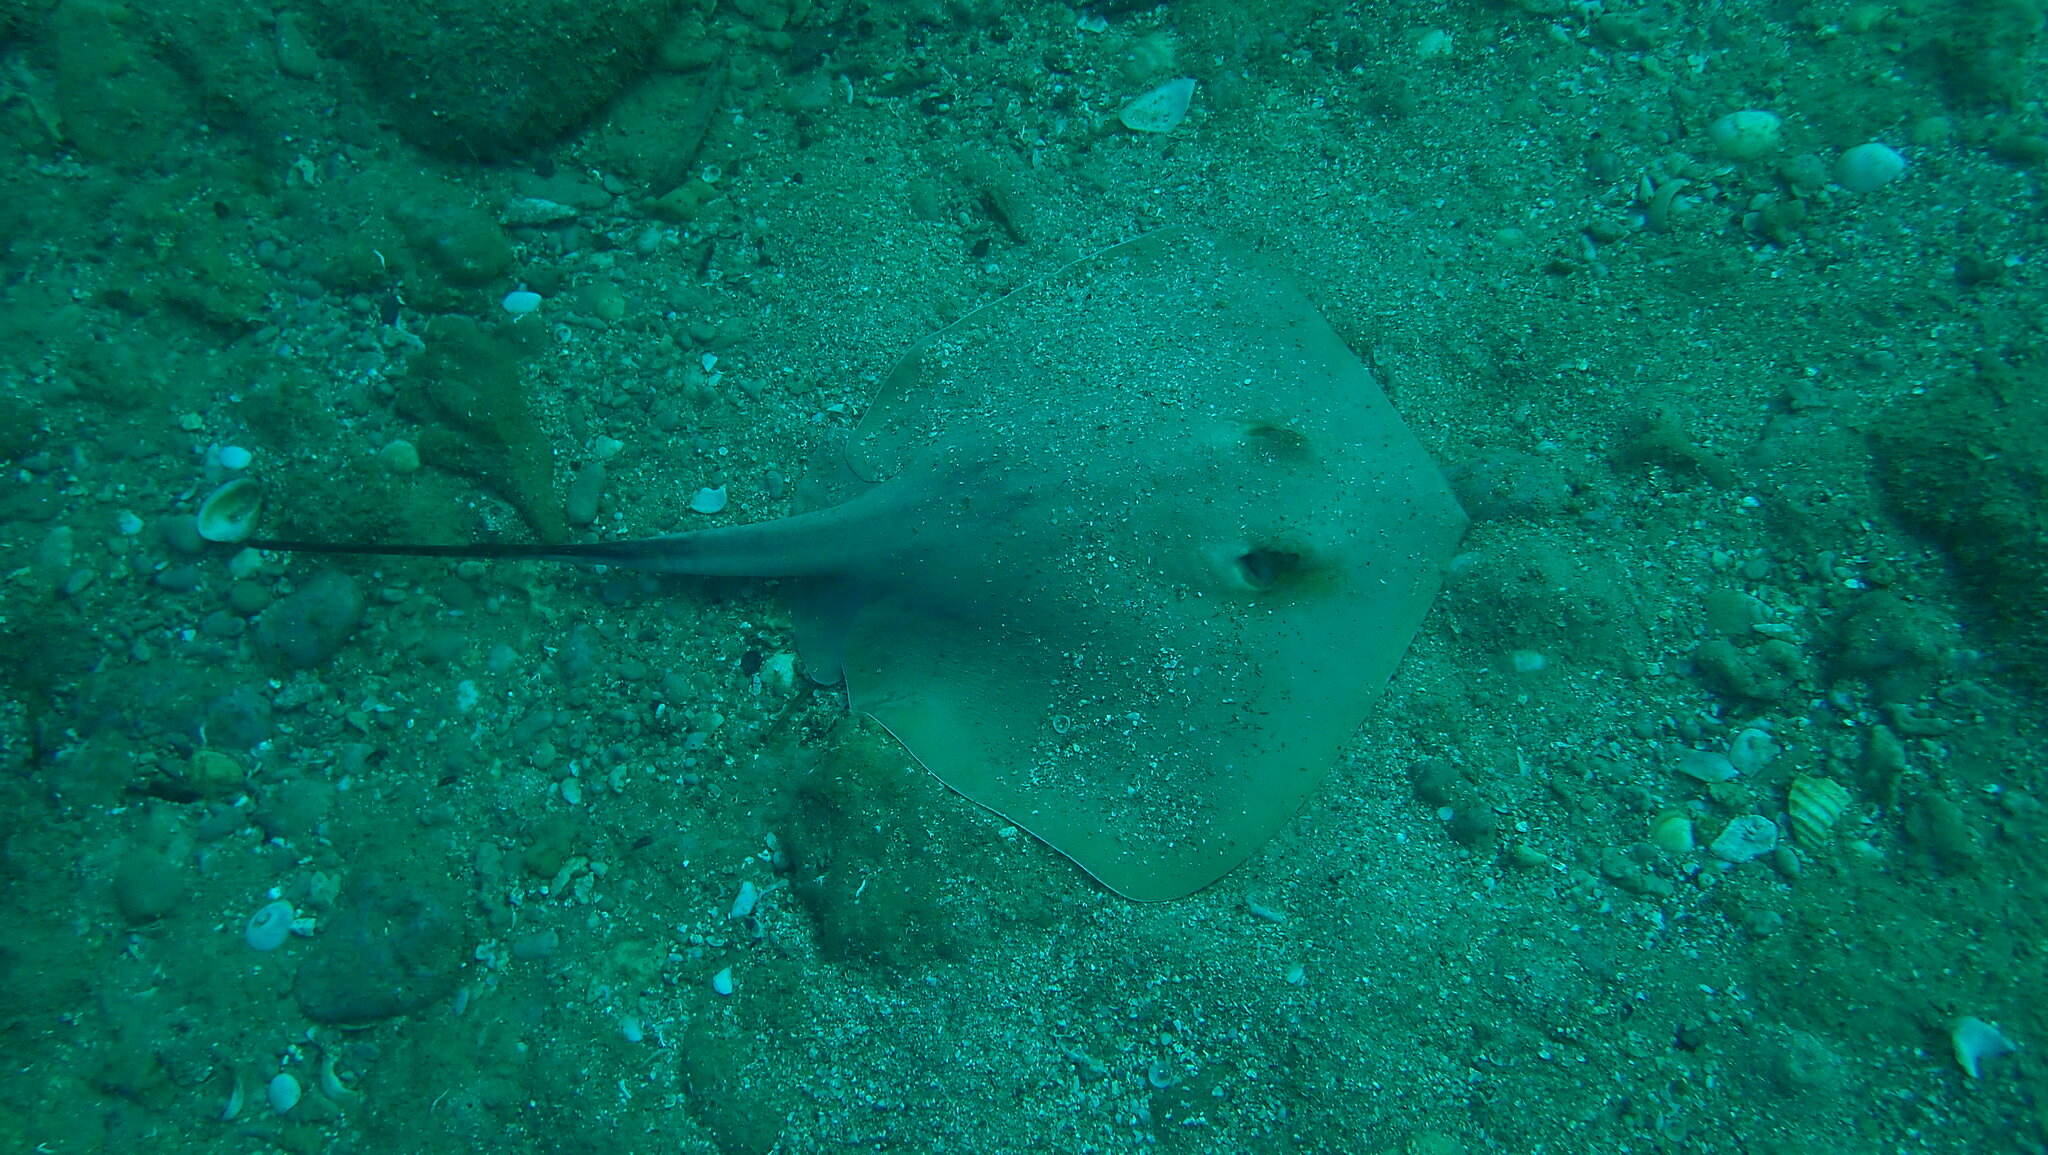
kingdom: Animalia
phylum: Chordata
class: Elasmobranchii
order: Myliobatiformes
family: Dasyatidae
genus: Dasyatis
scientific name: Dasyatis pastinaca
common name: Common stingray
